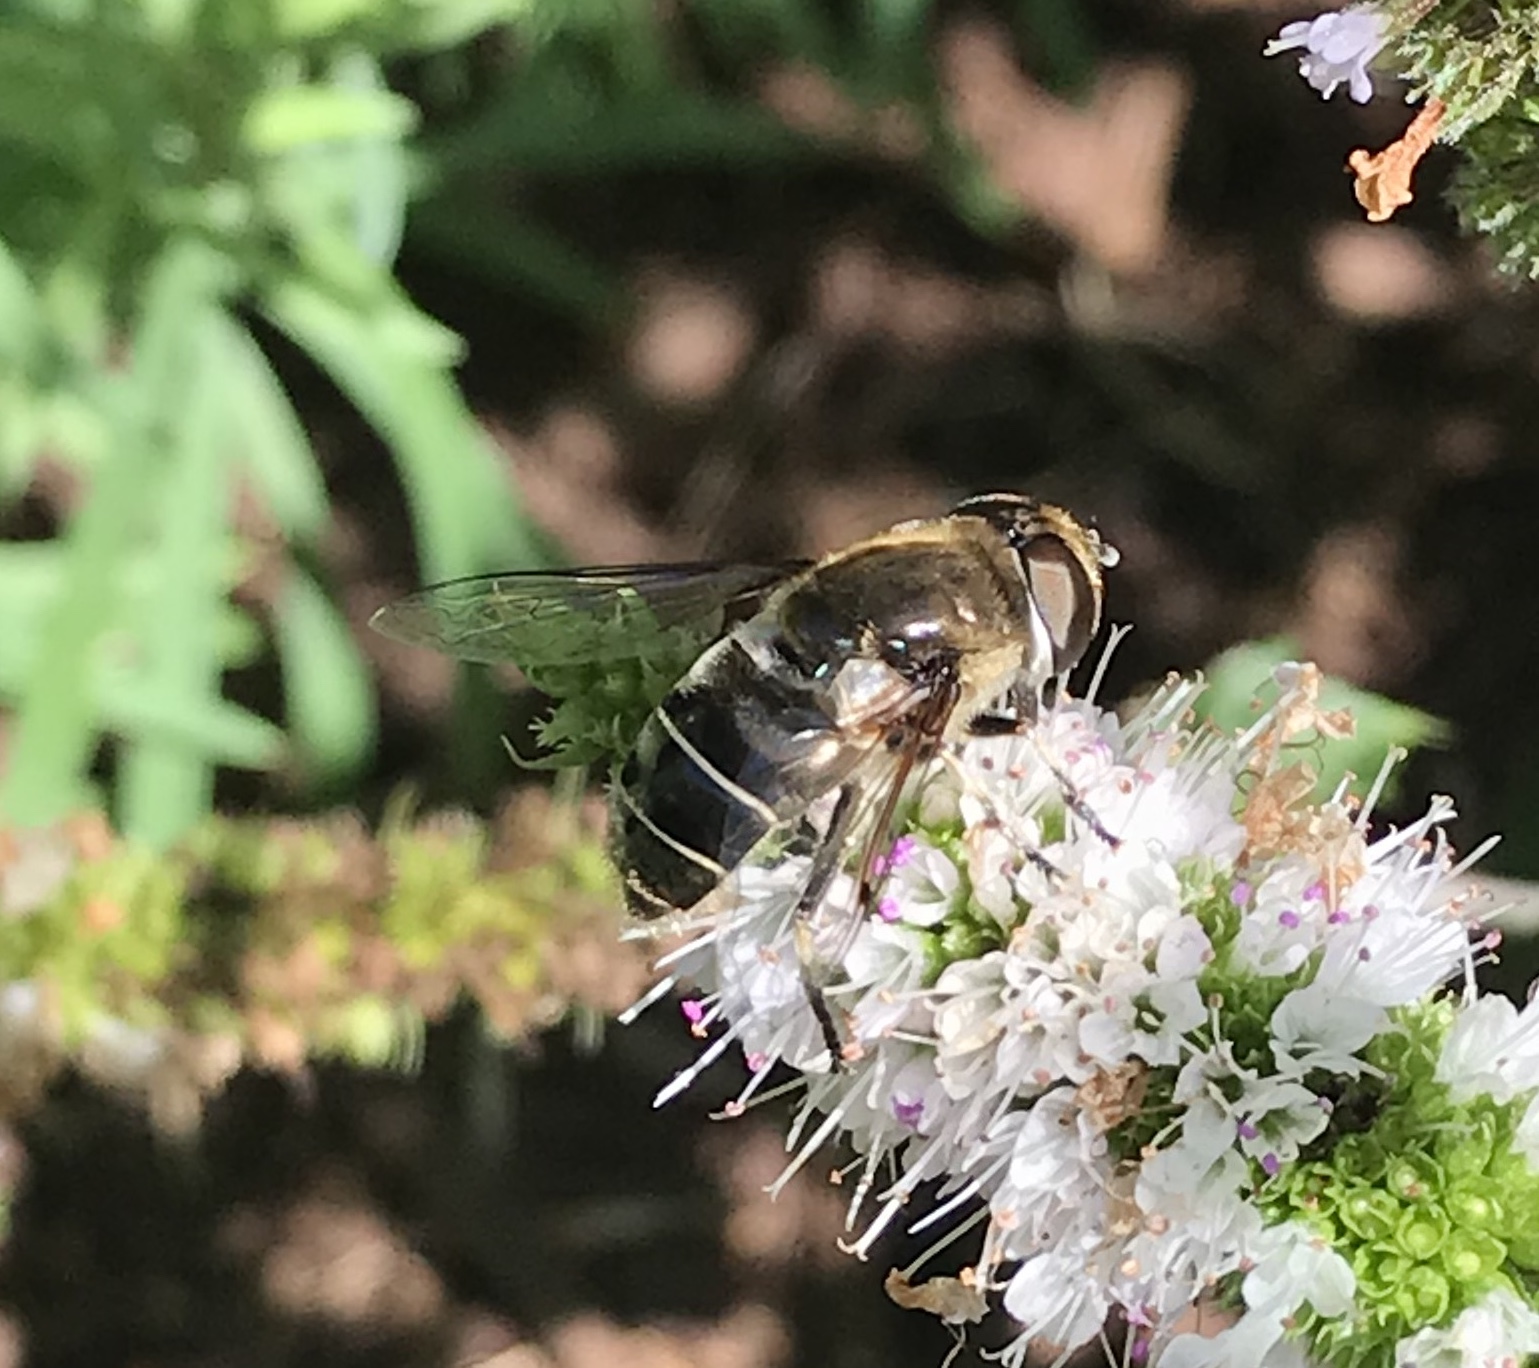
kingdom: Animalia
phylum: Arthropoda
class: Insecta
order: Diptera
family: Syrphidae
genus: Eristalis
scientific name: Eristalis dimidiata
